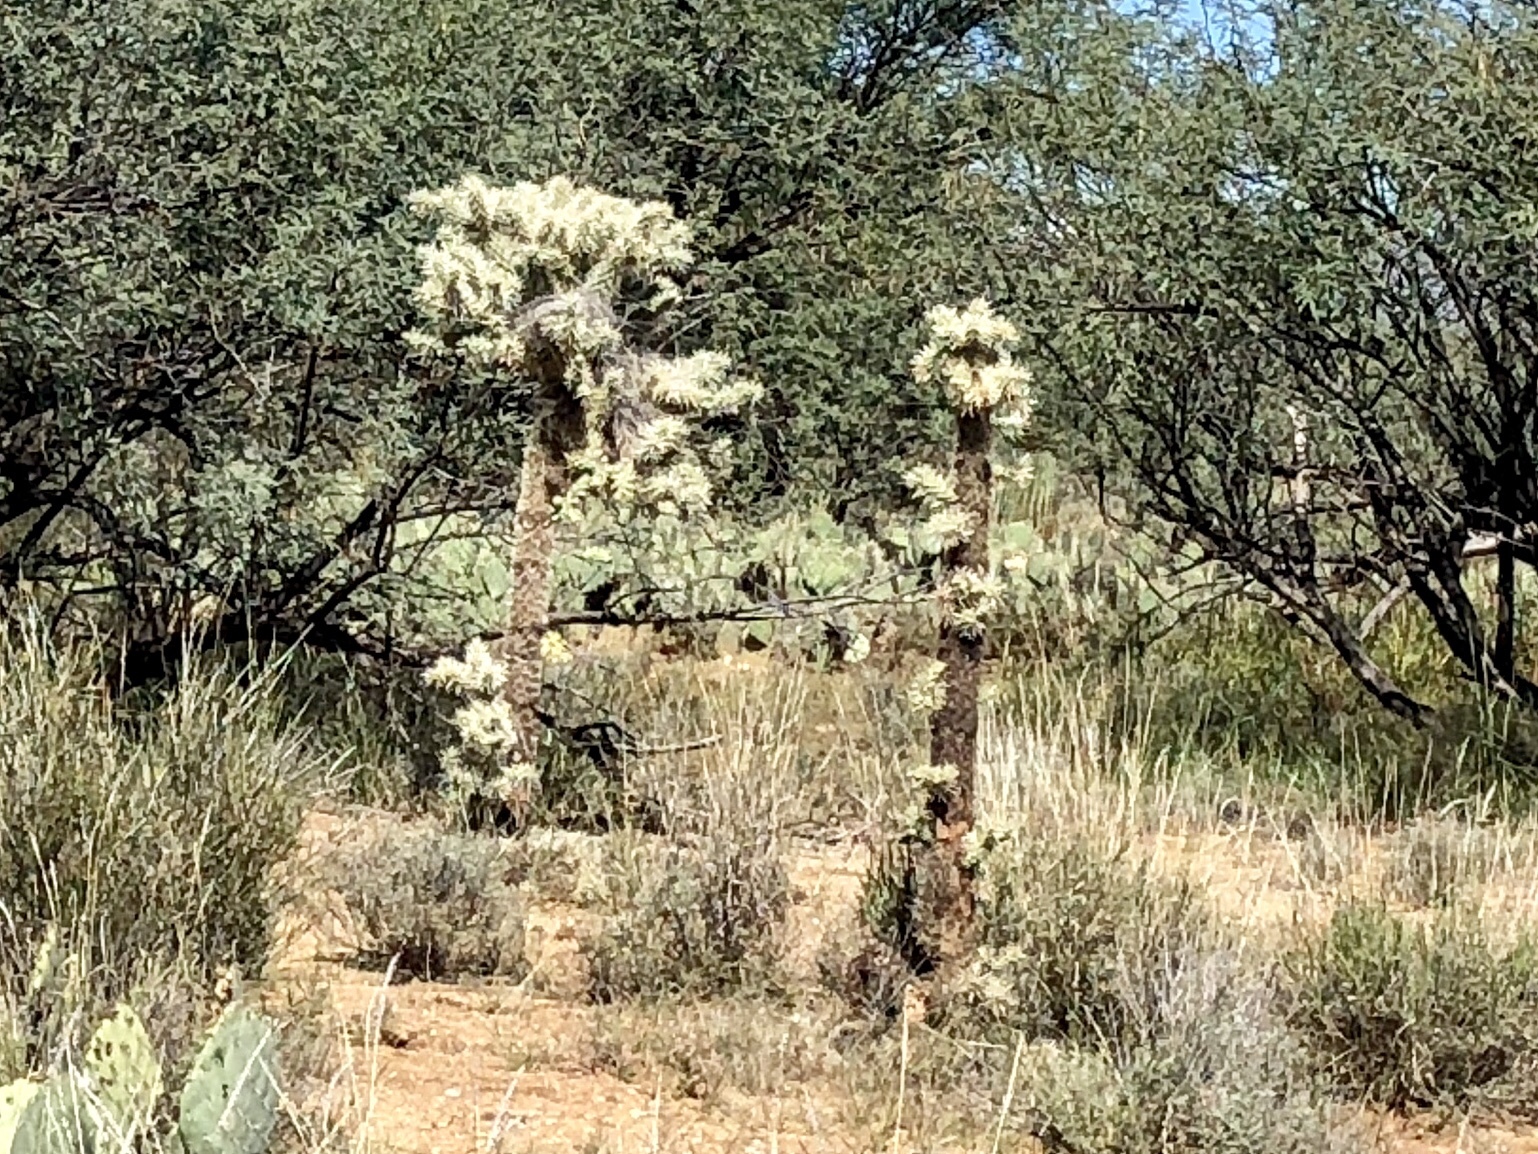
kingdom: Plantae
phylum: Tracheophyta
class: Magnoliopsida
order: Caryophyllales
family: Cactaceae
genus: Cylindropuntia
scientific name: Cylindropuntia fulgida
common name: Jumping cholla
